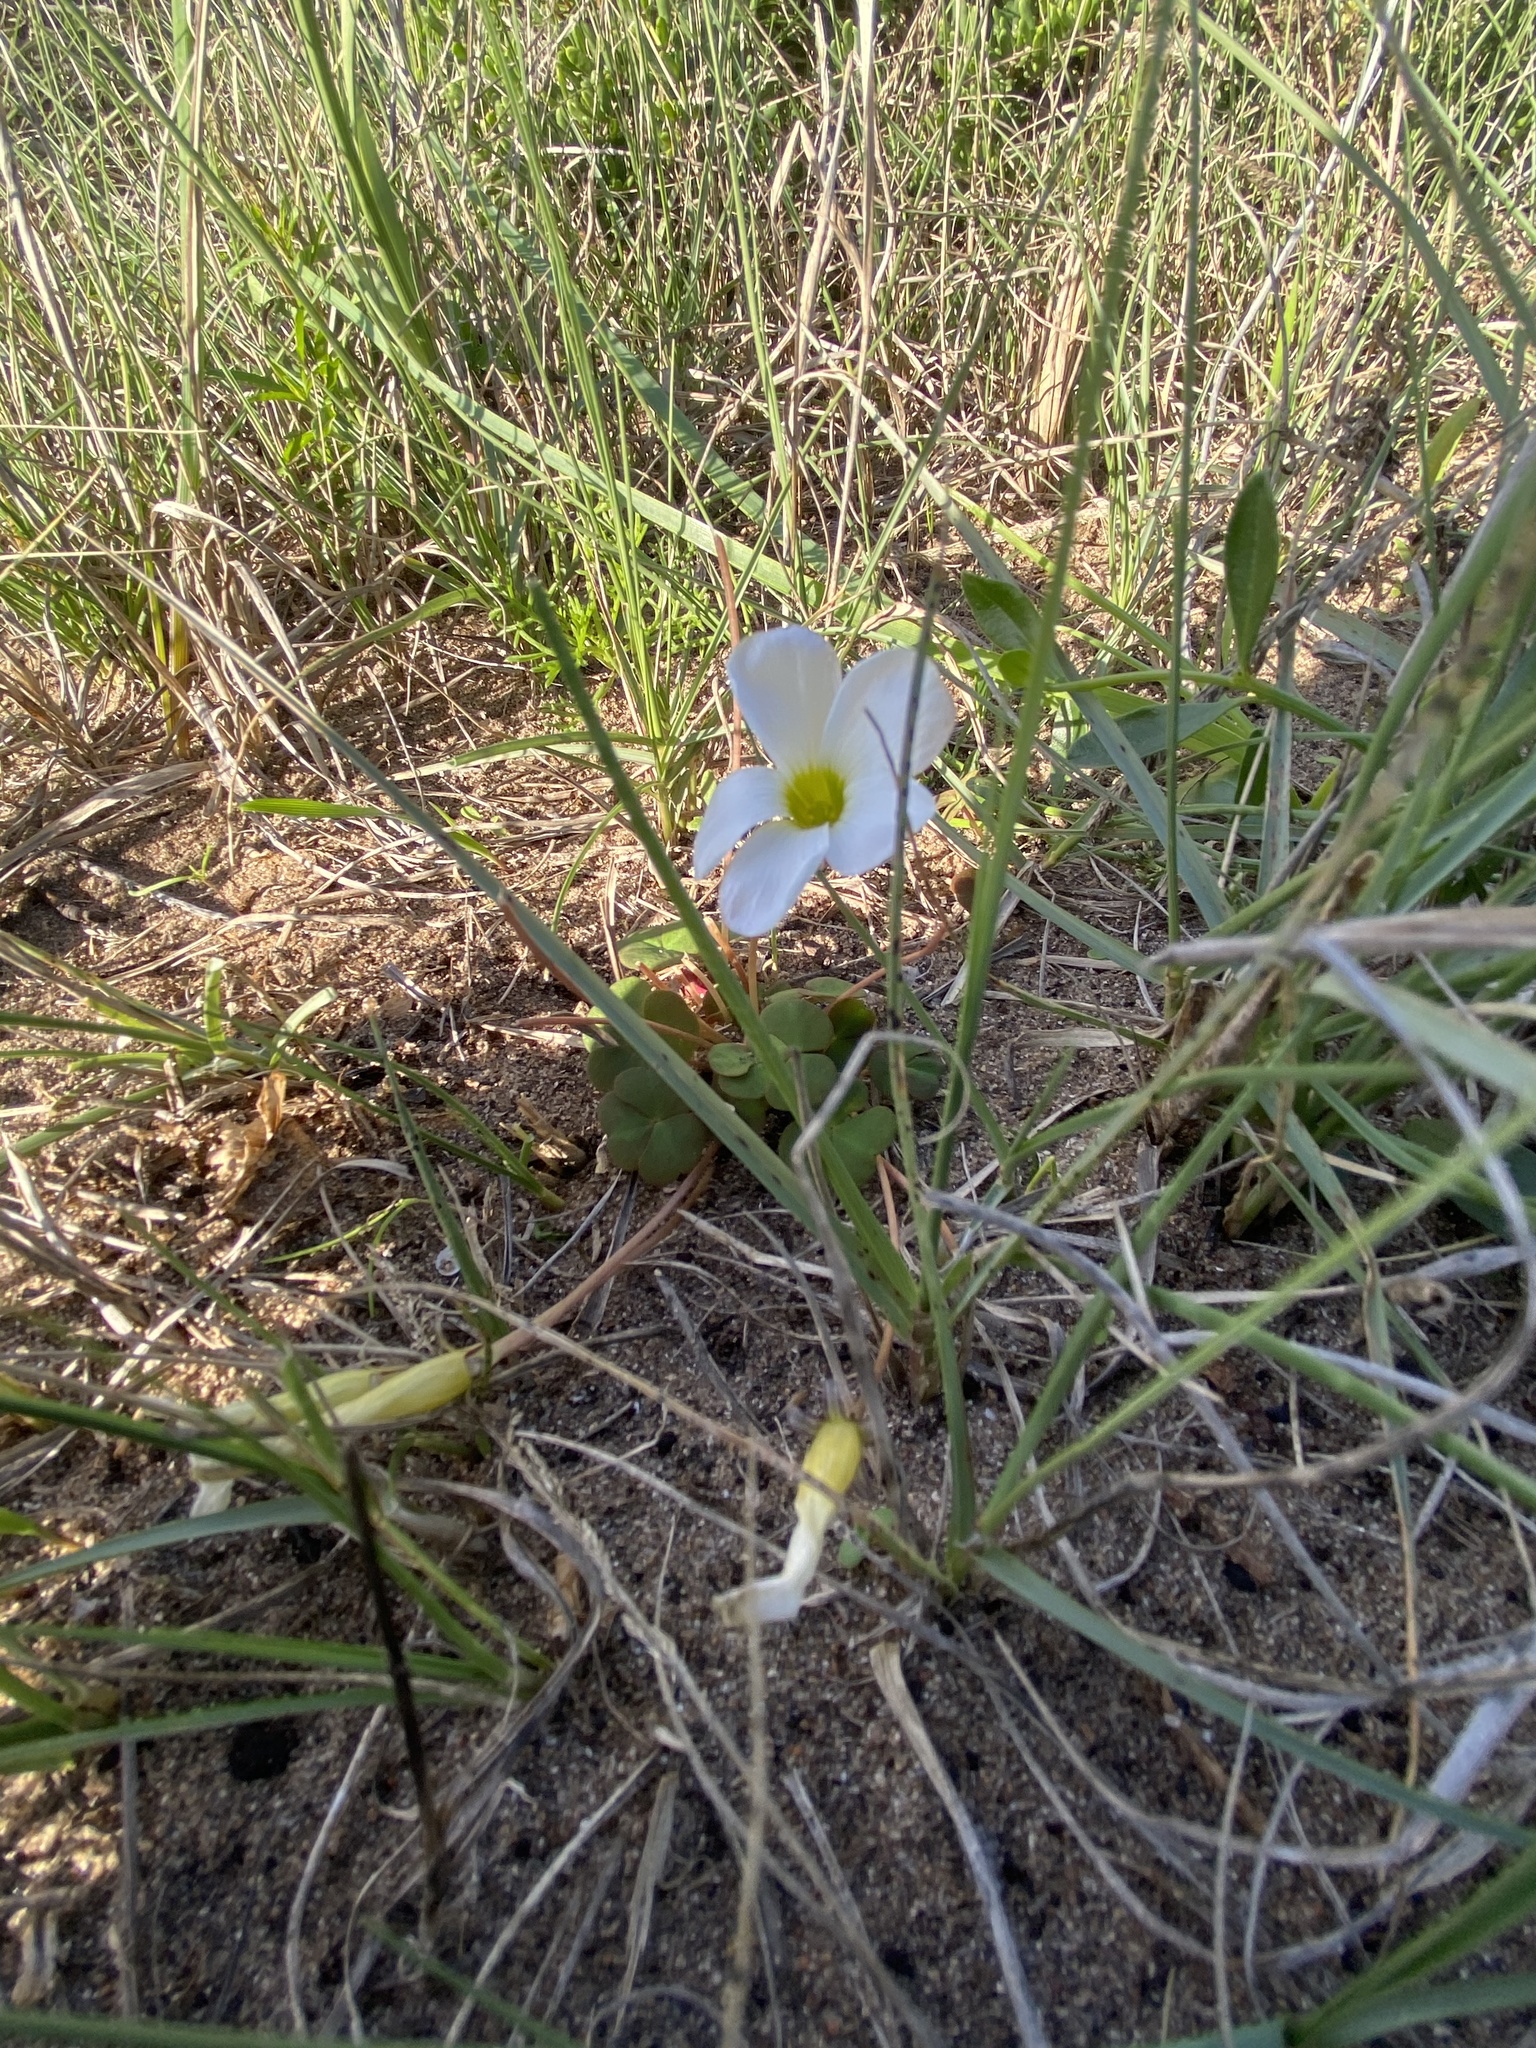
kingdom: Plantae
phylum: Tracheophyta
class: Magnoliopsida
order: Oxalidales
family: Oxalidaceae
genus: Oxalis
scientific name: Oxalis depressa
